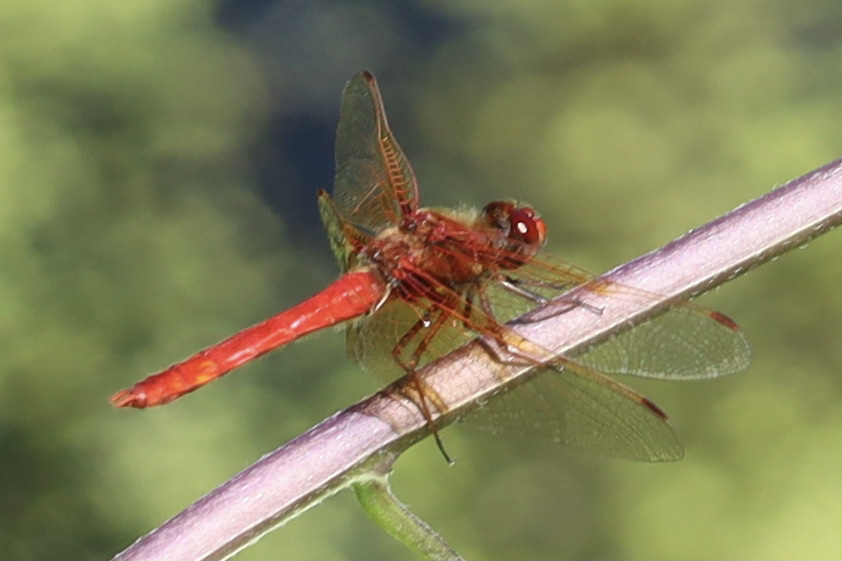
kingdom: Animalia
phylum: Arthropoda
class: Insecta
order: Odonata
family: Libellulidae
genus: Sympetrum
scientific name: Sympetrum illotum
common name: Cardinal meadowhawk
